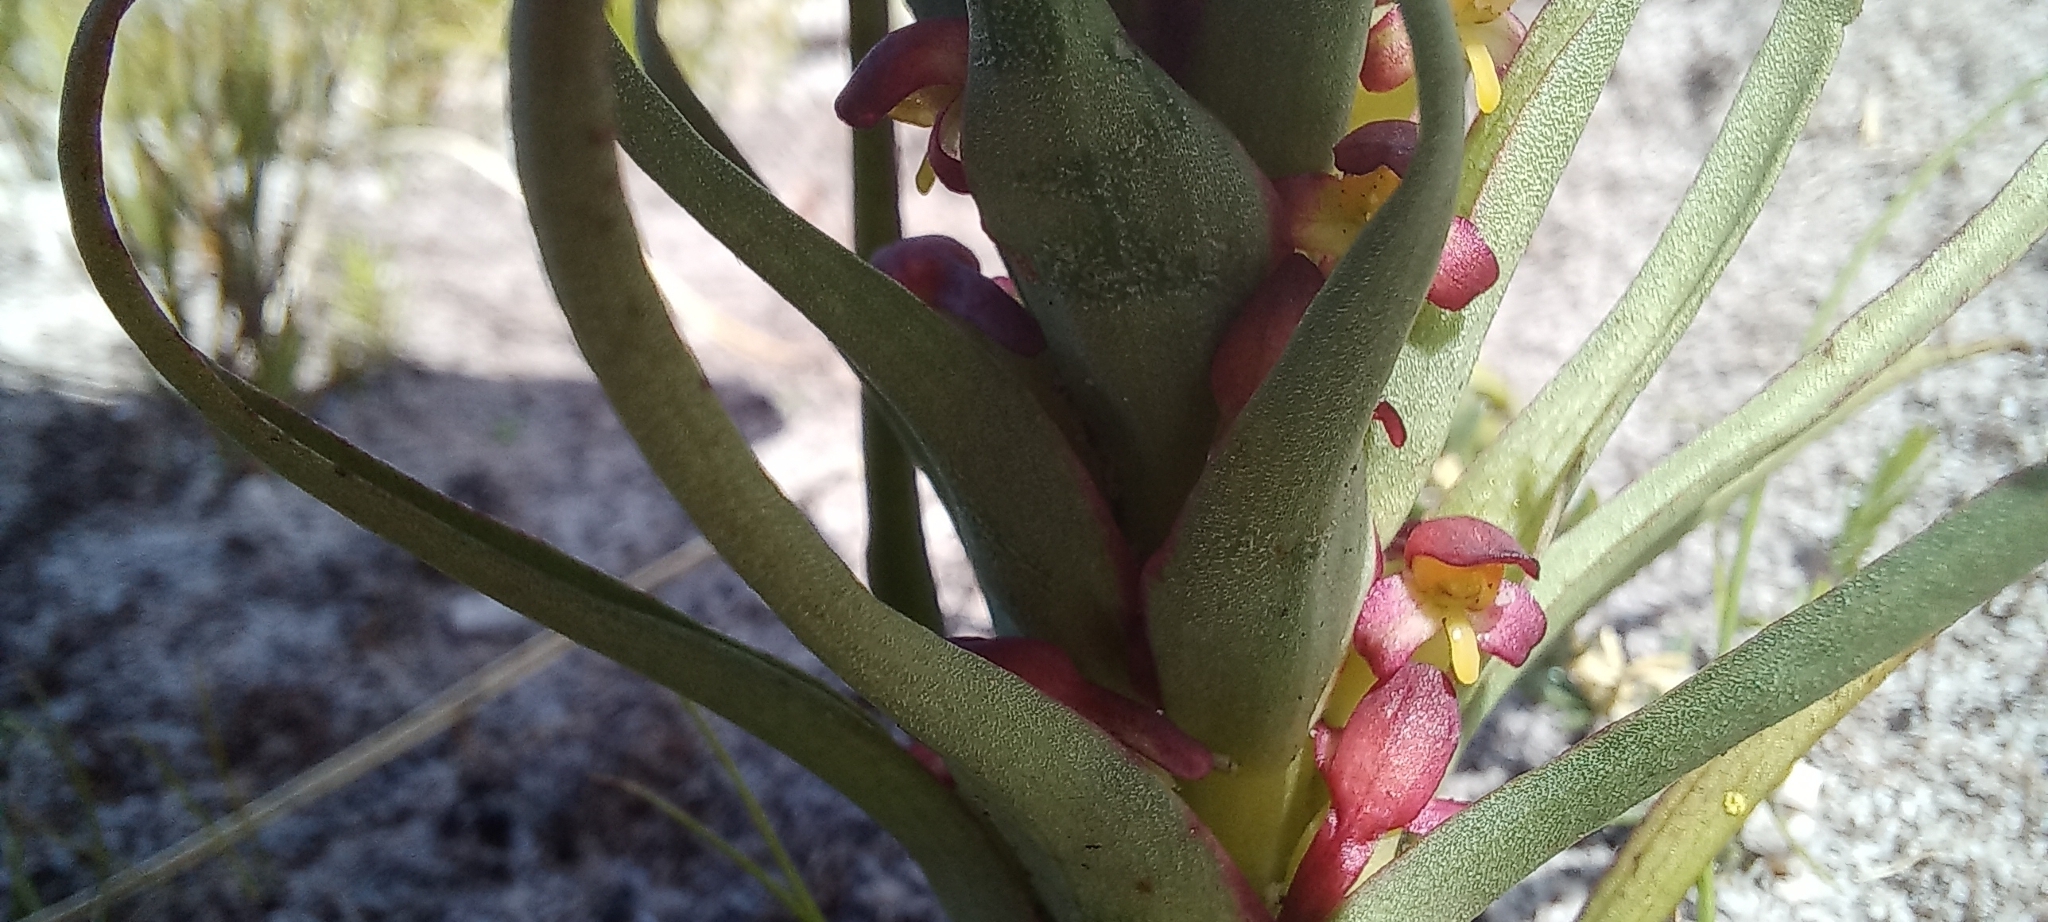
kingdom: Plantae
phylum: Tracheophyta
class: Liliopsida
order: Asparagales
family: Orchidaceae
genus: Disa
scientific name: Disa bracteata
